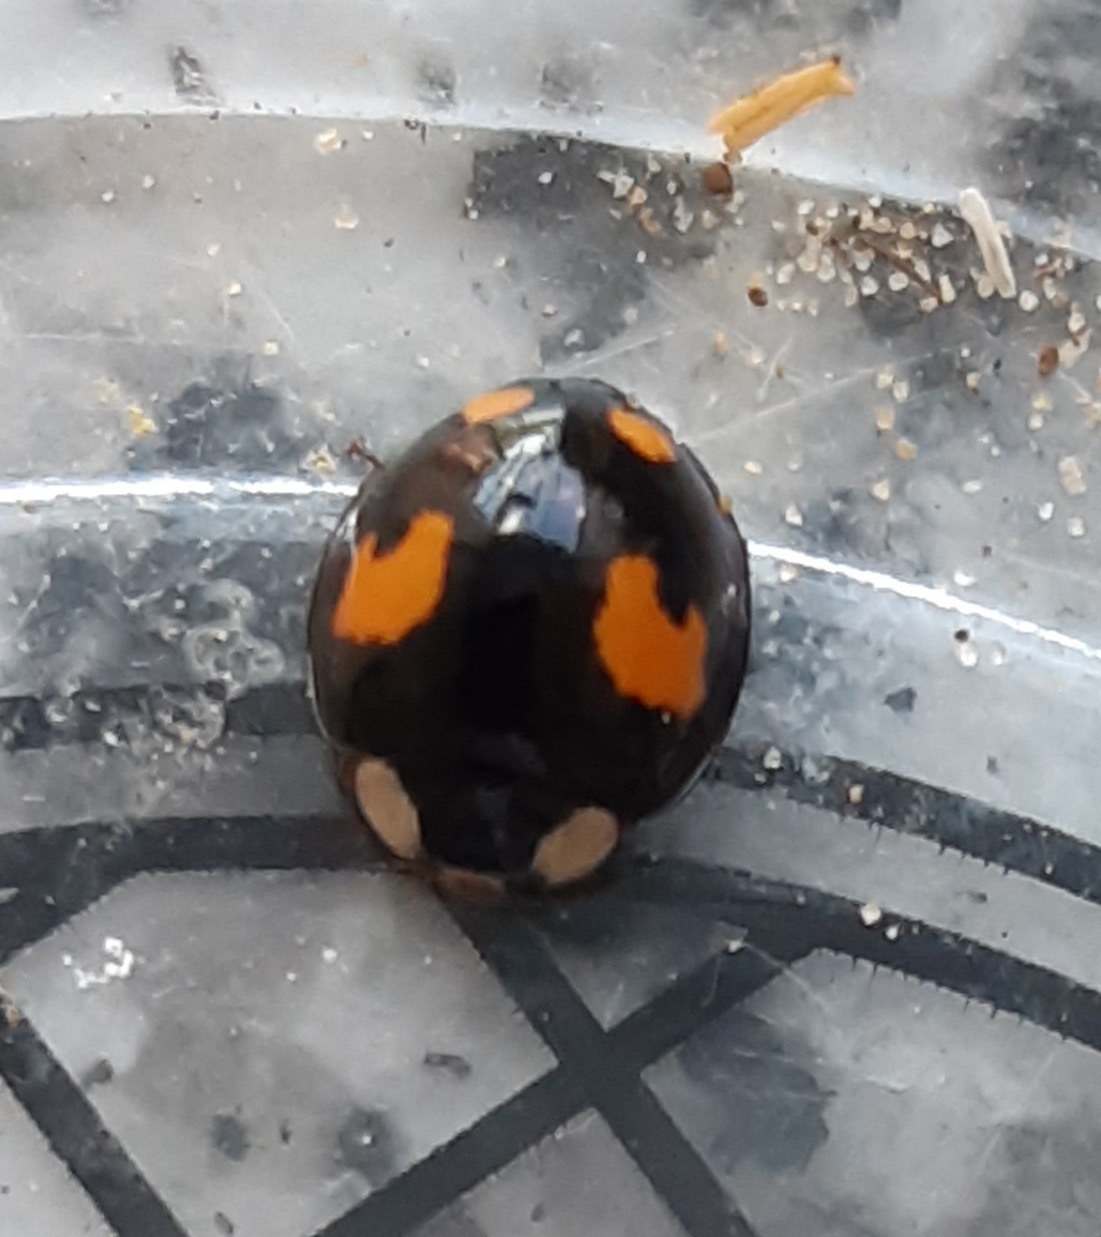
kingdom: Animalia
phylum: Arthropoda
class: Insecta
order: Coleoptera
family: Coccinellidae
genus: Harmonia
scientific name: Harmonia axyridis
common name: Harlequin ladybird
